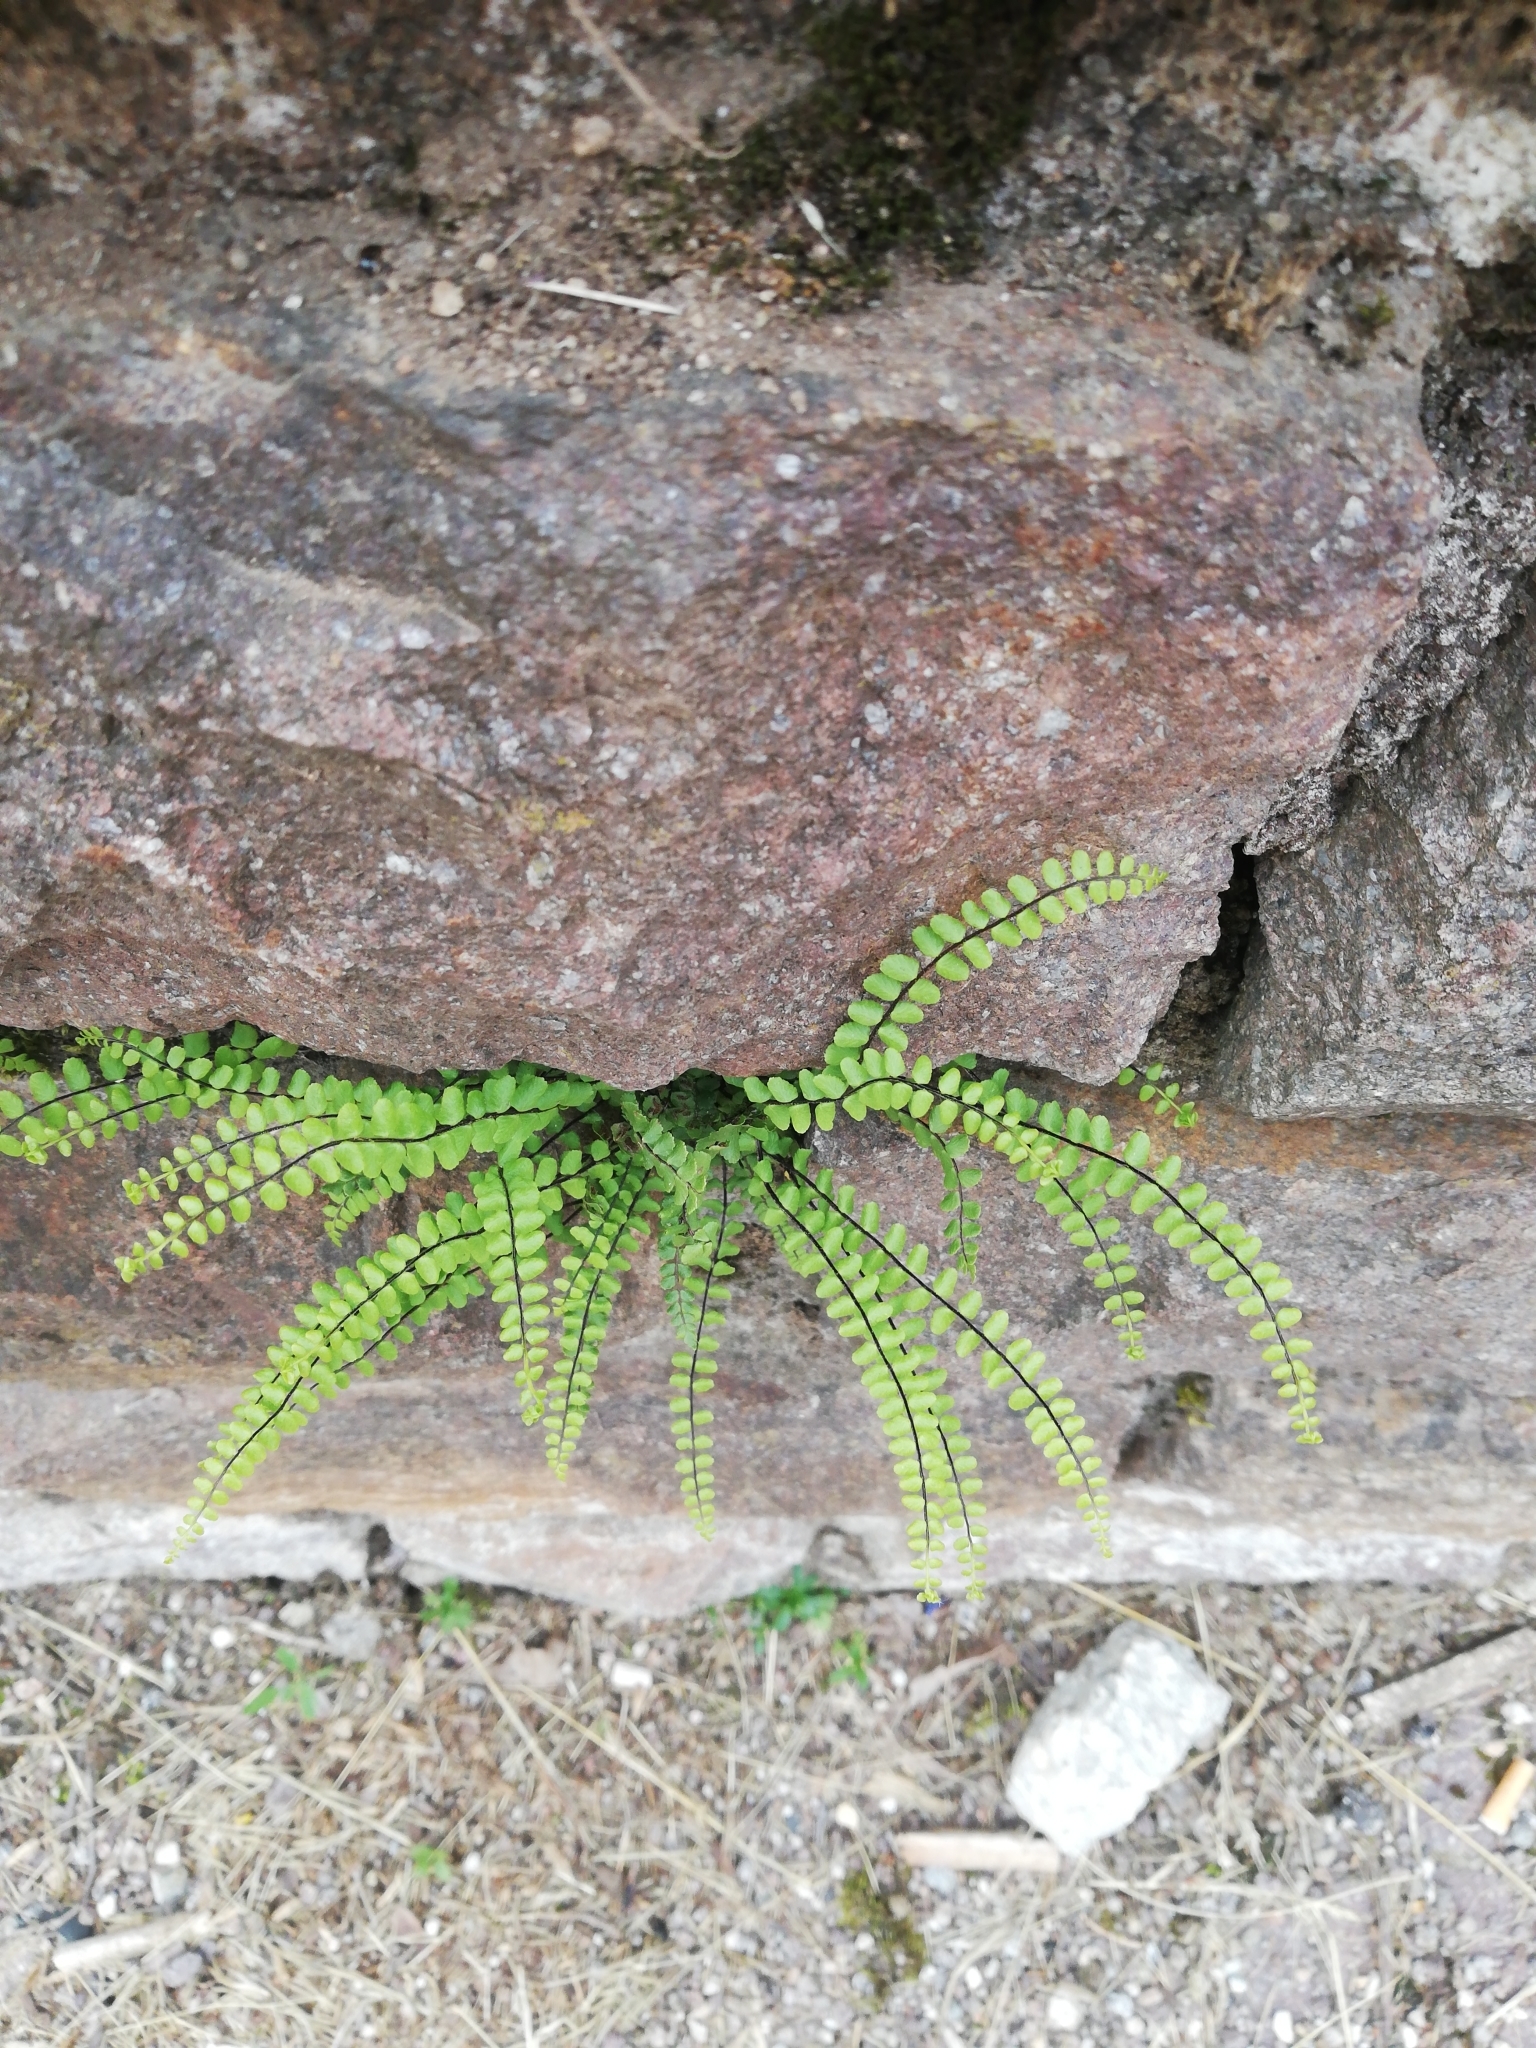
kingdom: Plantae
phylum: Tracheophyta
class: Polypodiopsida
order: Polypodiales
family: Aspleniaceae
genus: Asplenium
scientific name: Asplenium trichomanes
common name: Maidenhair spleenwort
